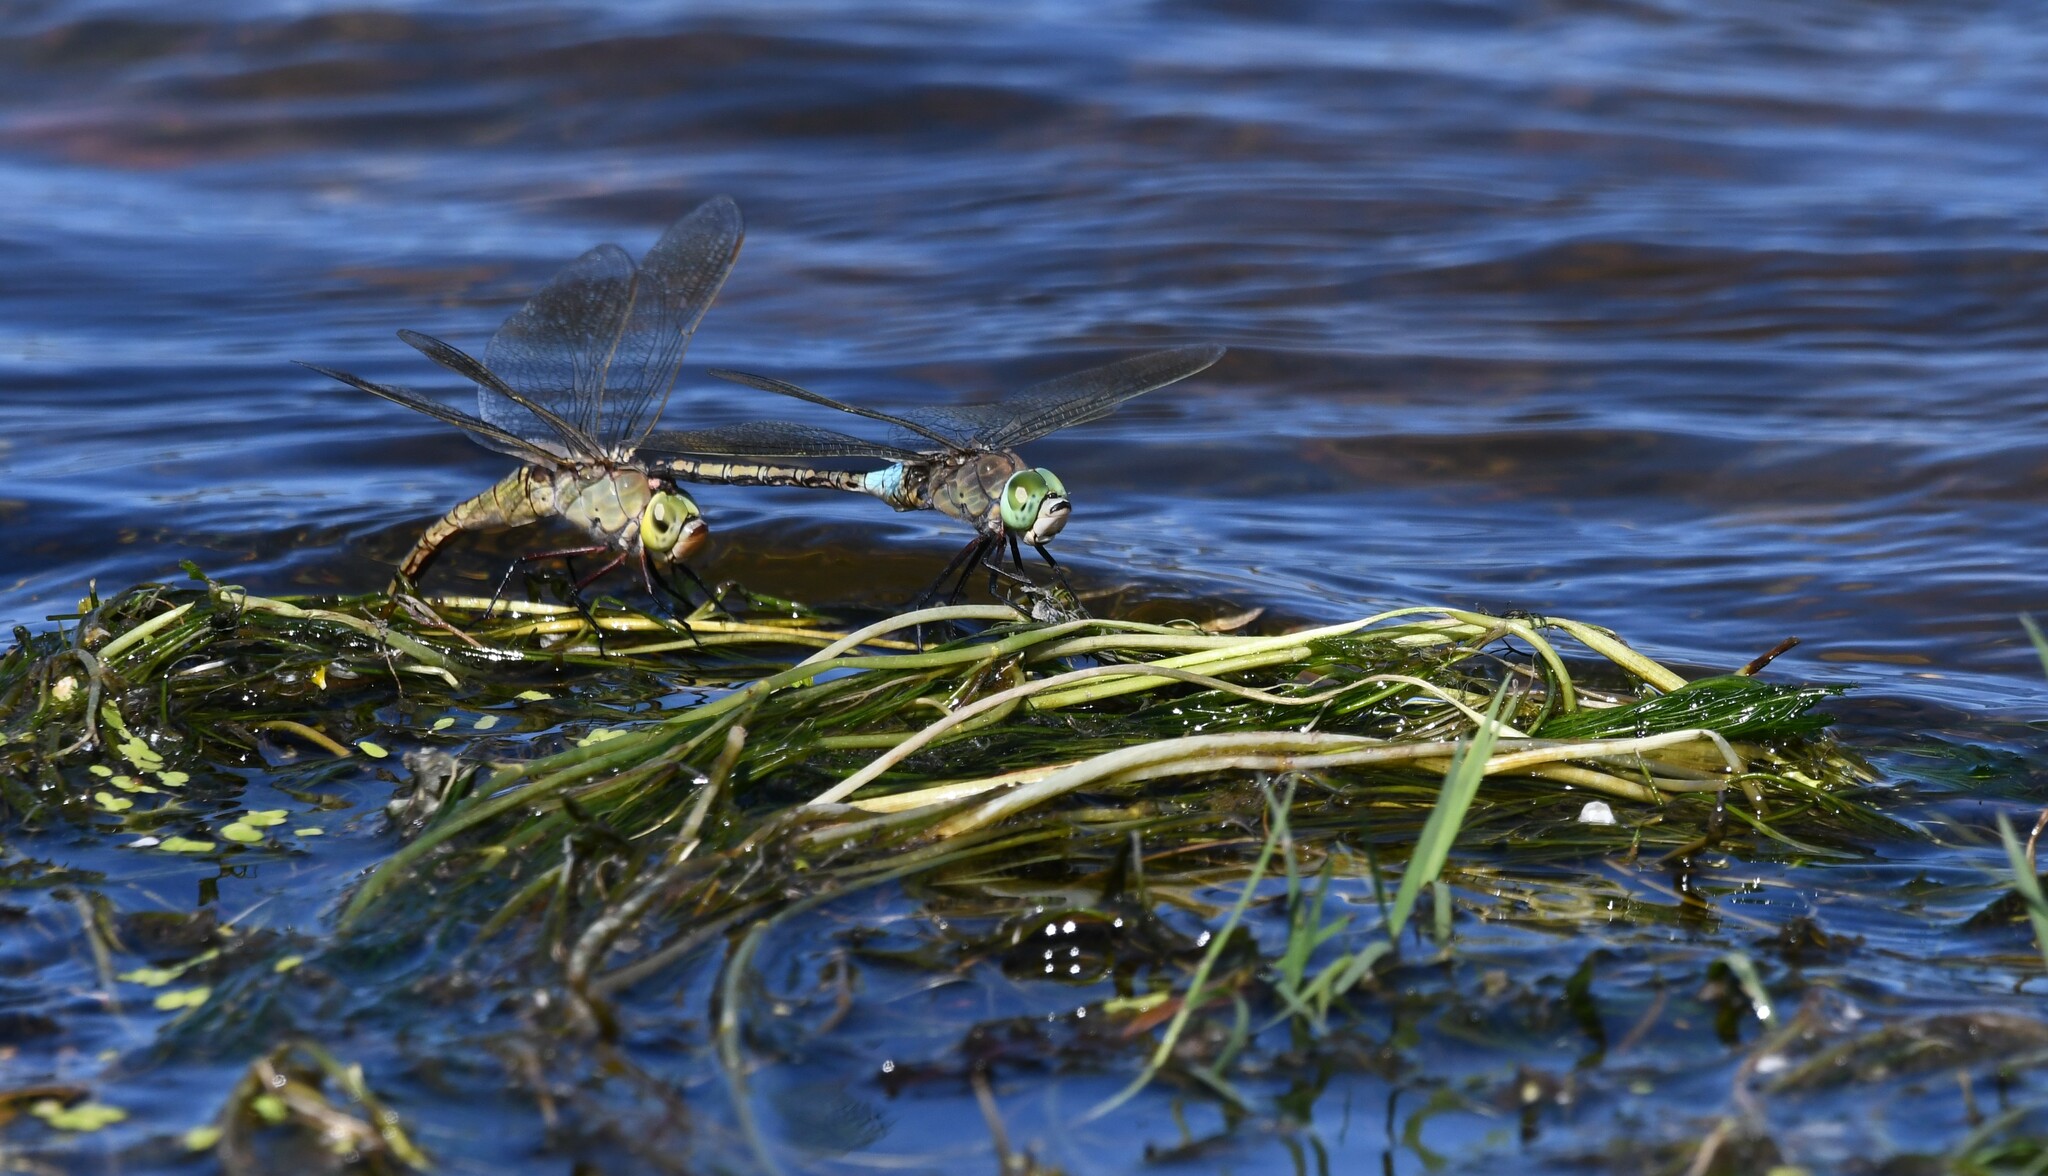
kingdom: Animalia
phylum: Arthropoda
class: Insecta
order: Odonata
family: Aeshnidae
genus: Anax
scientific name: Anax parthenope
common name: Lesser emperor
